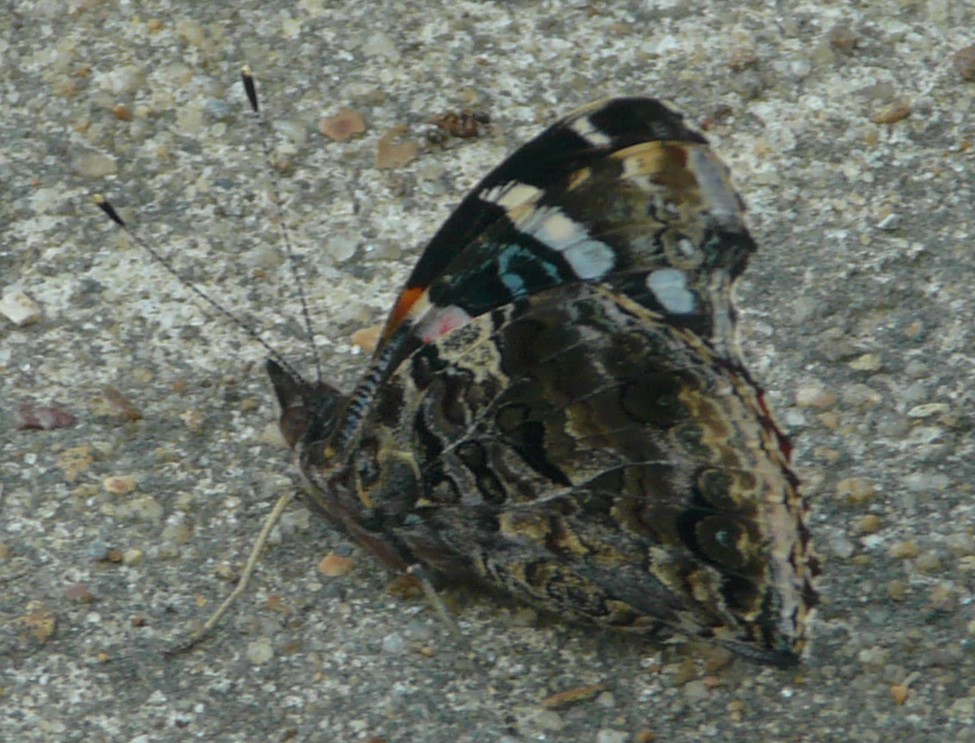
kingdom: Animalia
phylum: Arthropoda
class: Insecta
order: Lepidoptera
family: Nymphalidae
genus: Vanessa
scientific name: Vanessa atalanta
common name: Red admiral
